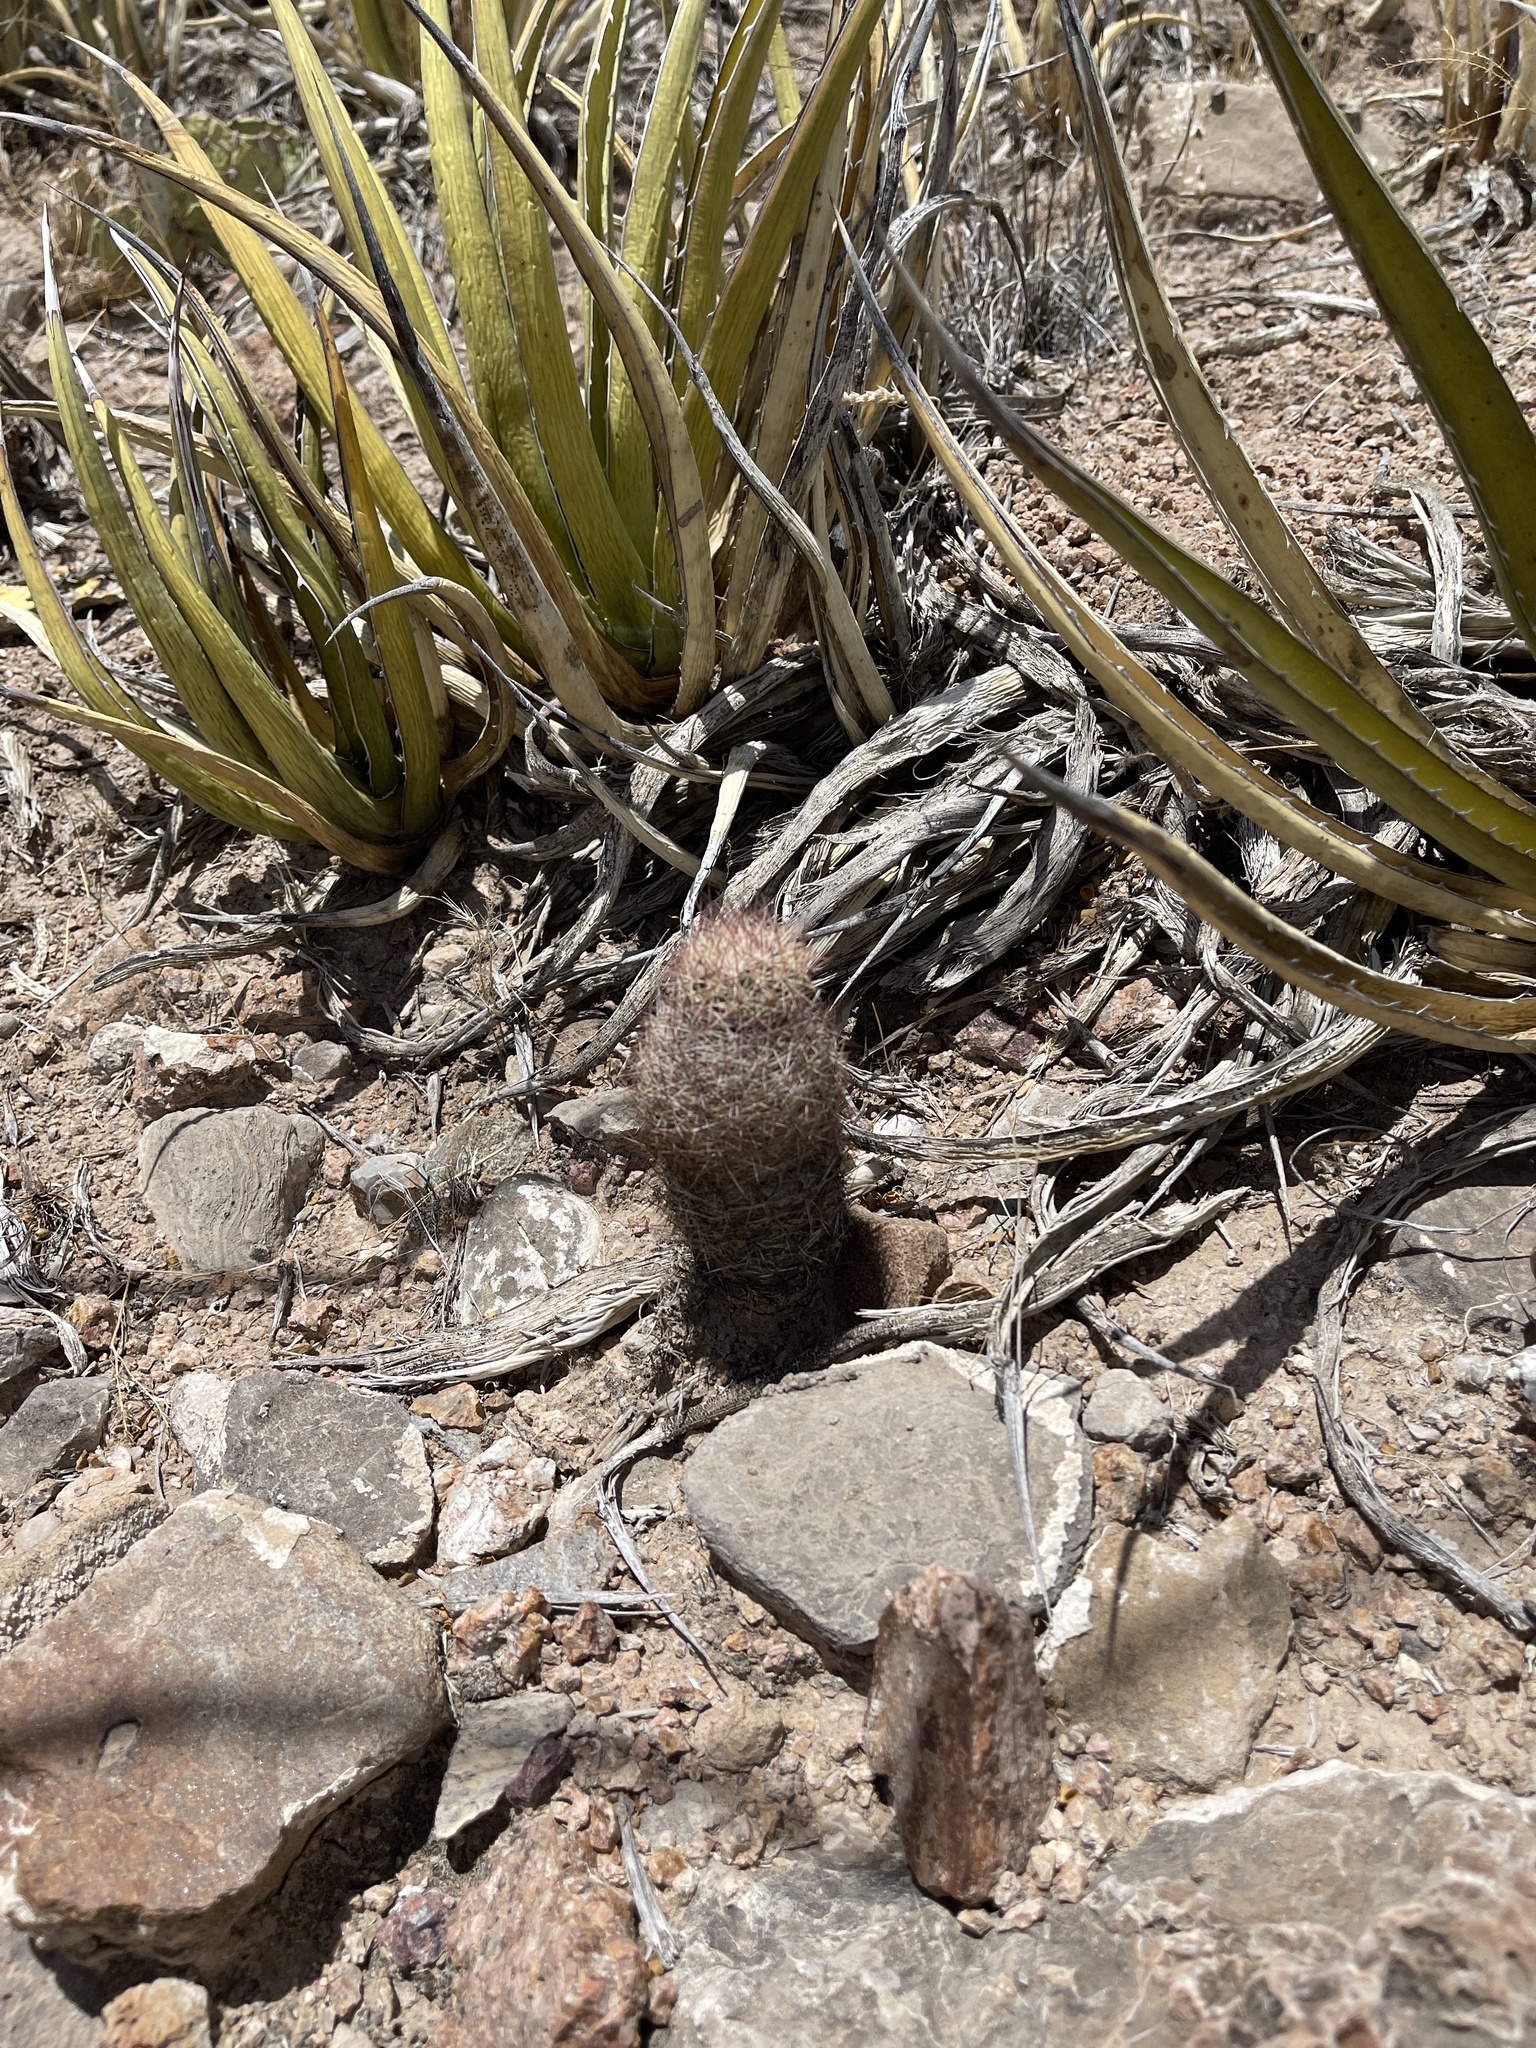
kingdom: Plantae
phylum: Tracheophyta
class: Magnoliopsida
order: Caryophyllales
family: Cactaceae
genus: Sclerocactus
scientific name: Sclerocactus intertextus
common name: White fish-hook cactus
